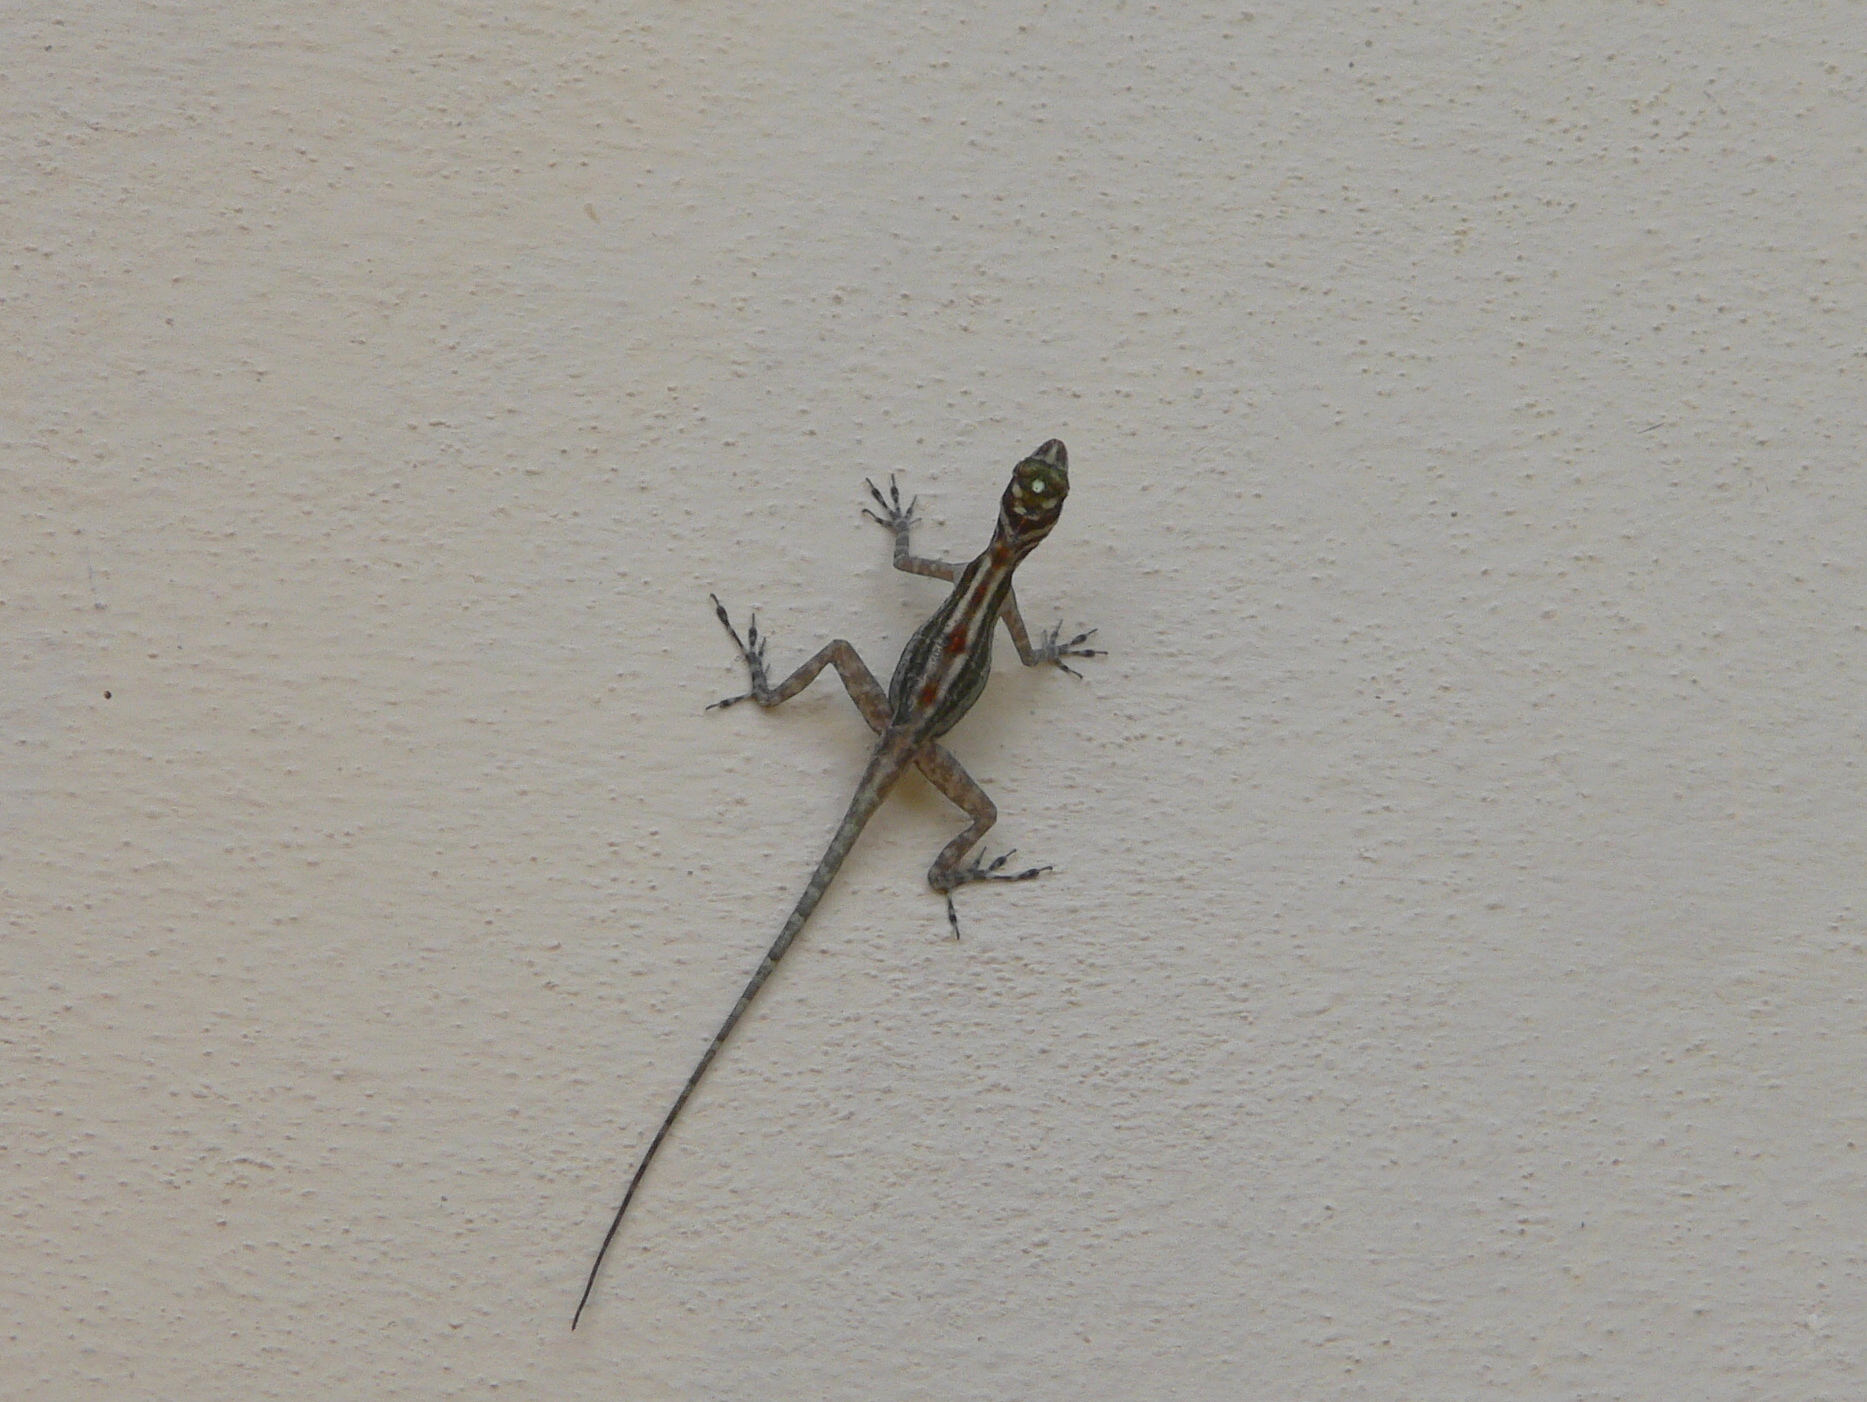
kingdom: Animalia
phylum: Chordata
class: Squamata
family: Dactyloidae
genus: Anolis
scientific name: Anolis lucius
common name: Cave anole
